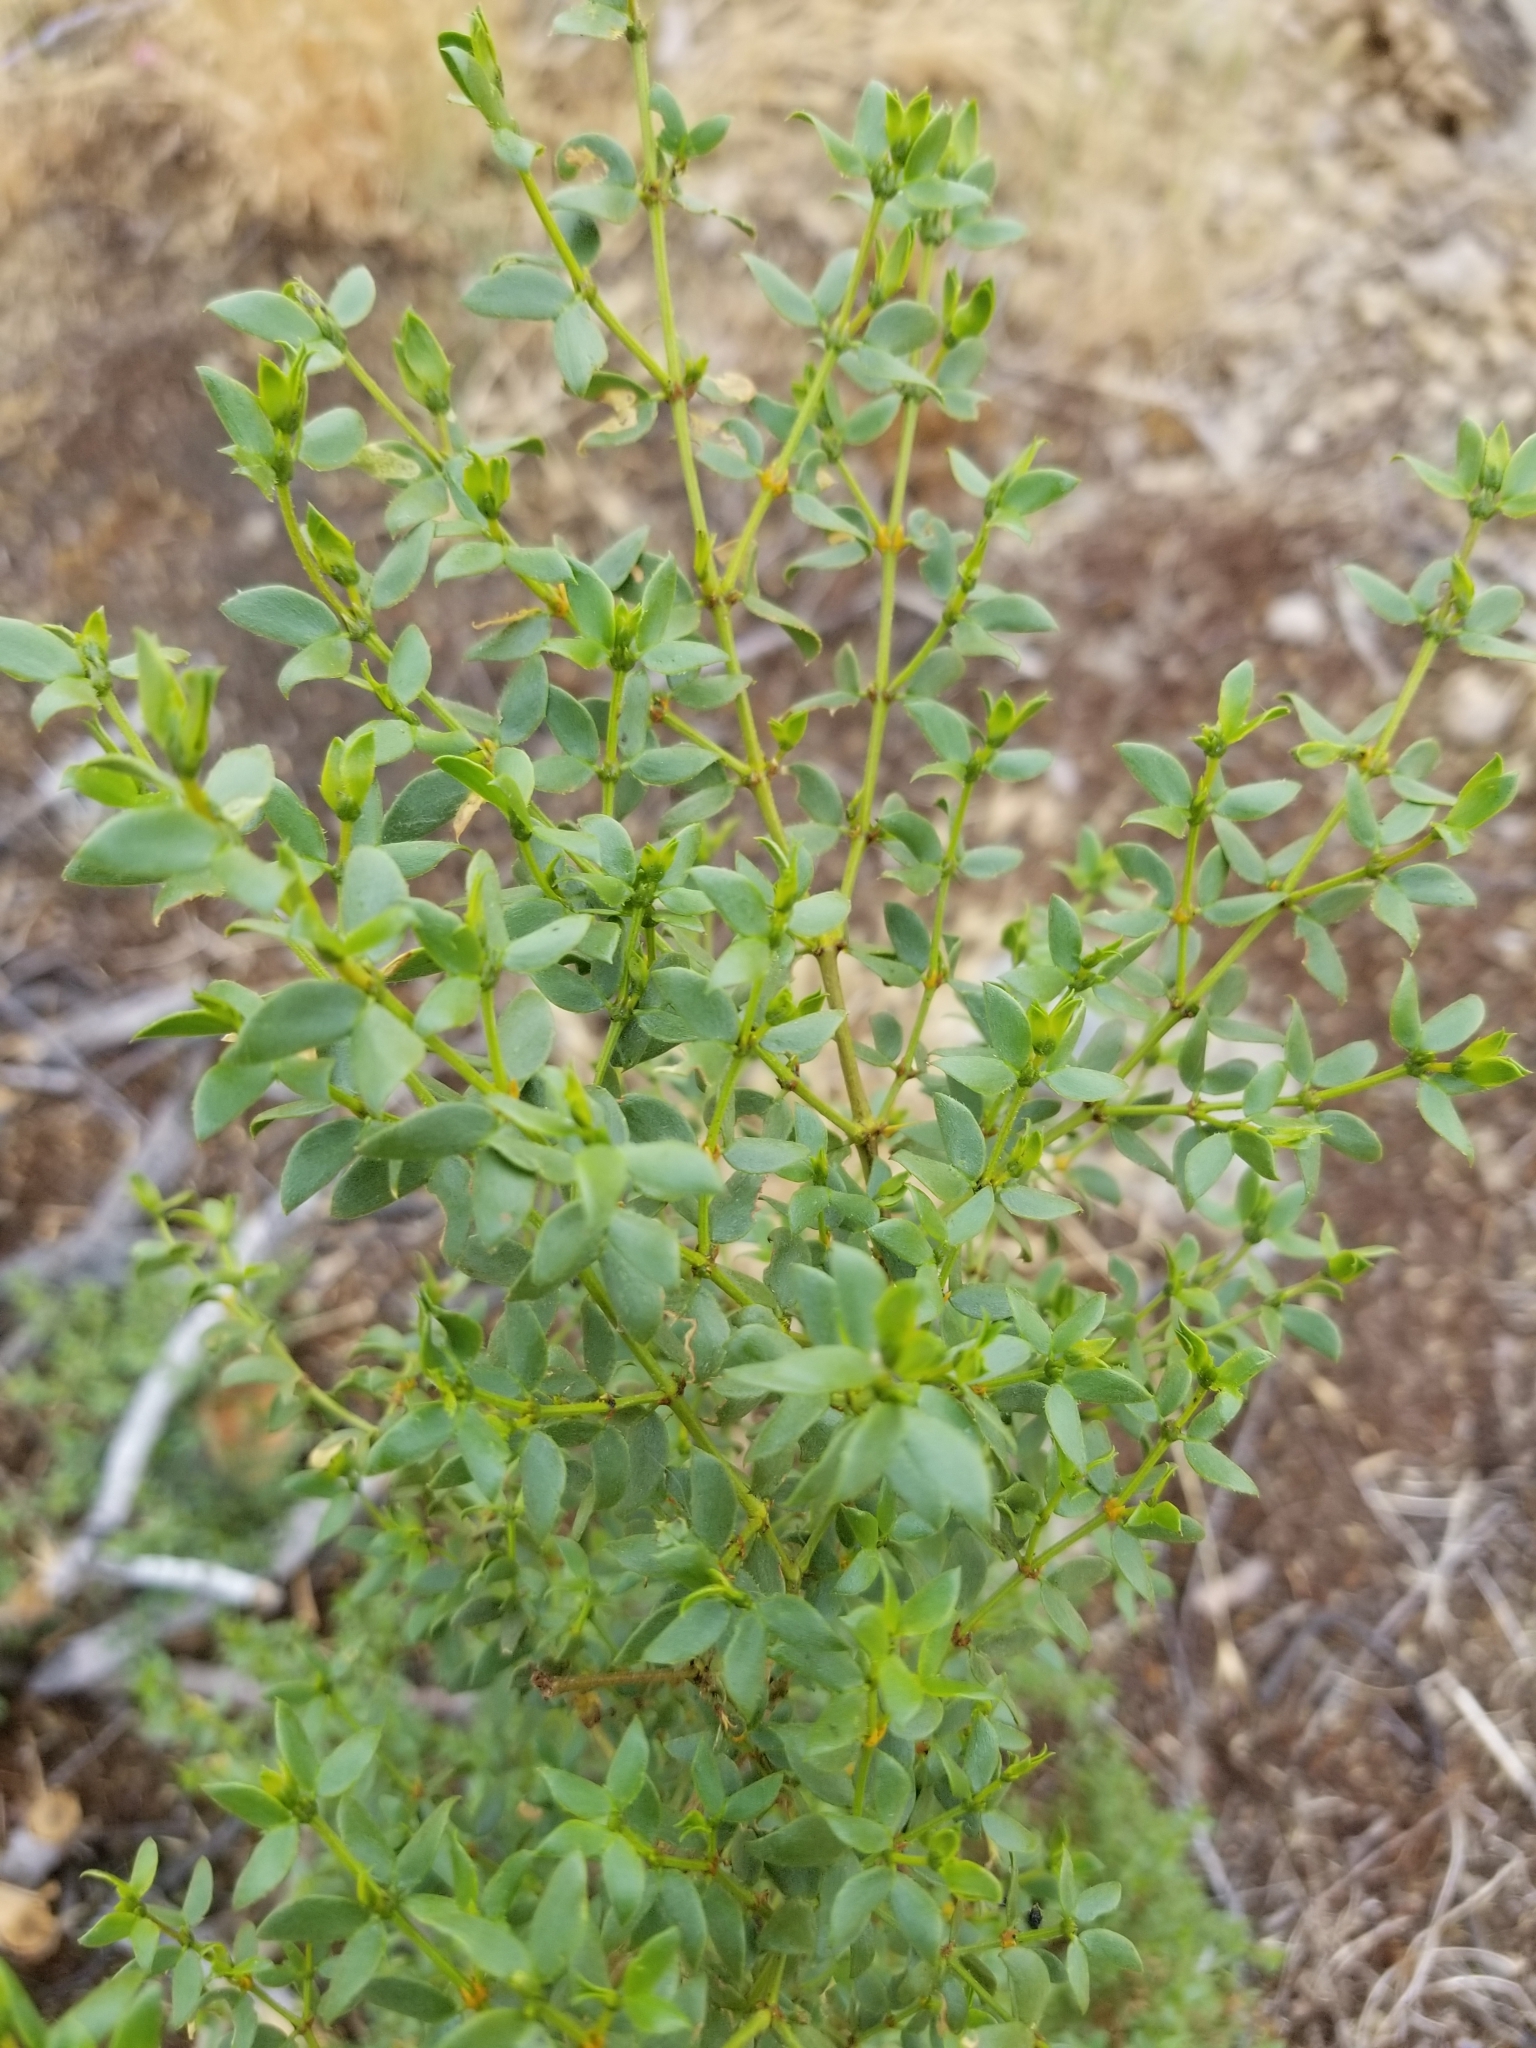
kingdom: Plantae
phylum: Tracheophyta
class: Magnoliopsida
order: Zygophyllales
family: Zygophyllaceae
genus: Larrea
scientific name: Larrea tridentata
